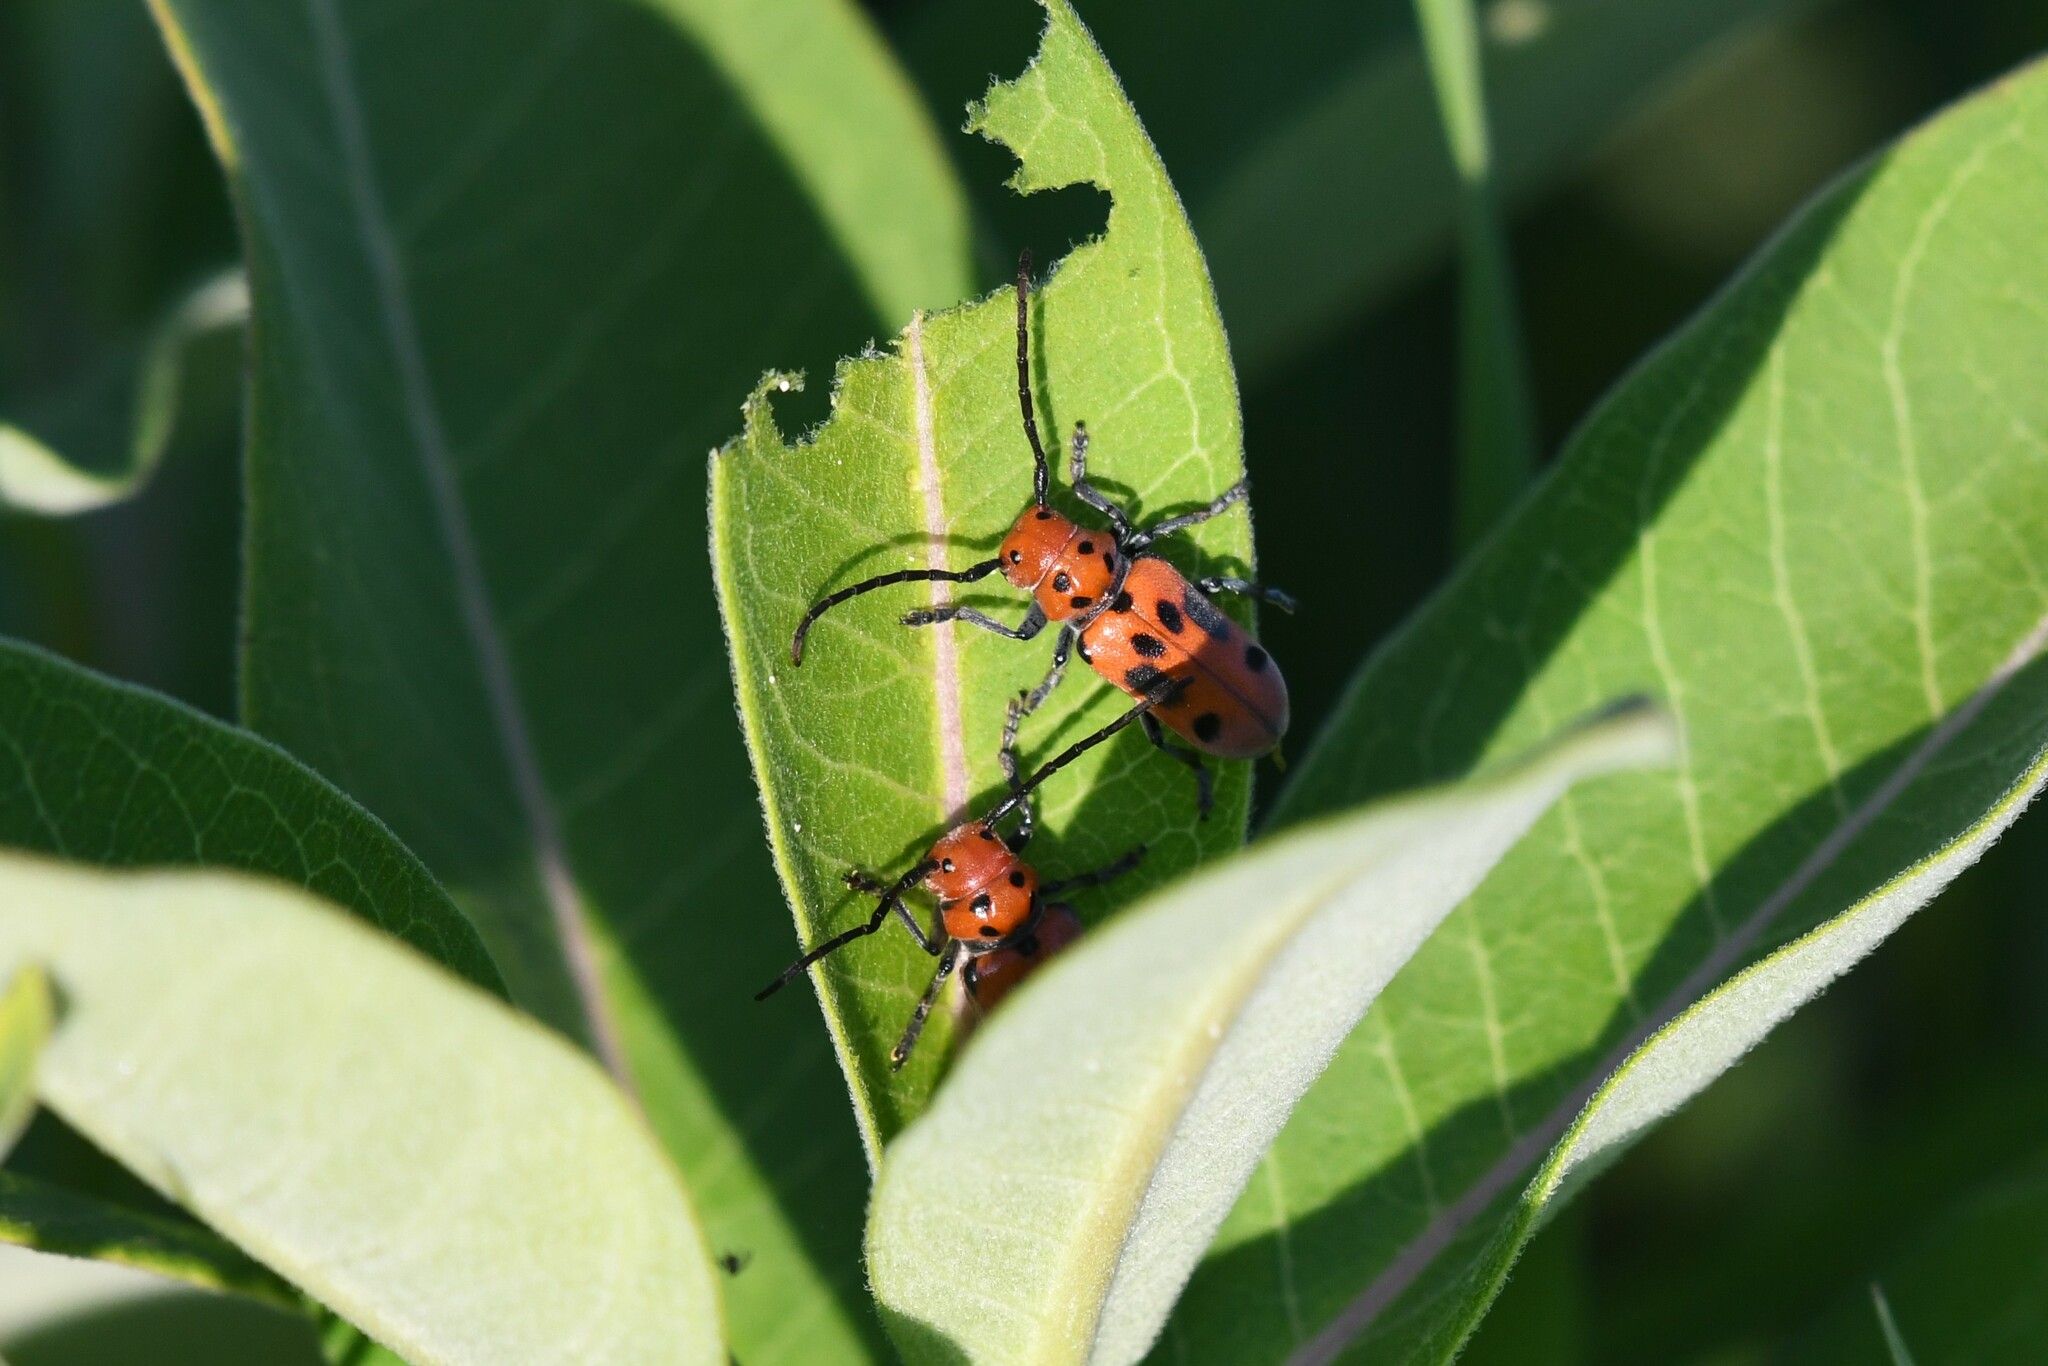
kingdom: Animalia
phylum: Arthropoda
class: Insecta
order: Coleoptera
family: Cerambycidae
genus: Tetraopes
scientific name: Tetraopes tetrophthalmus
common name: Red milkweed beetle
